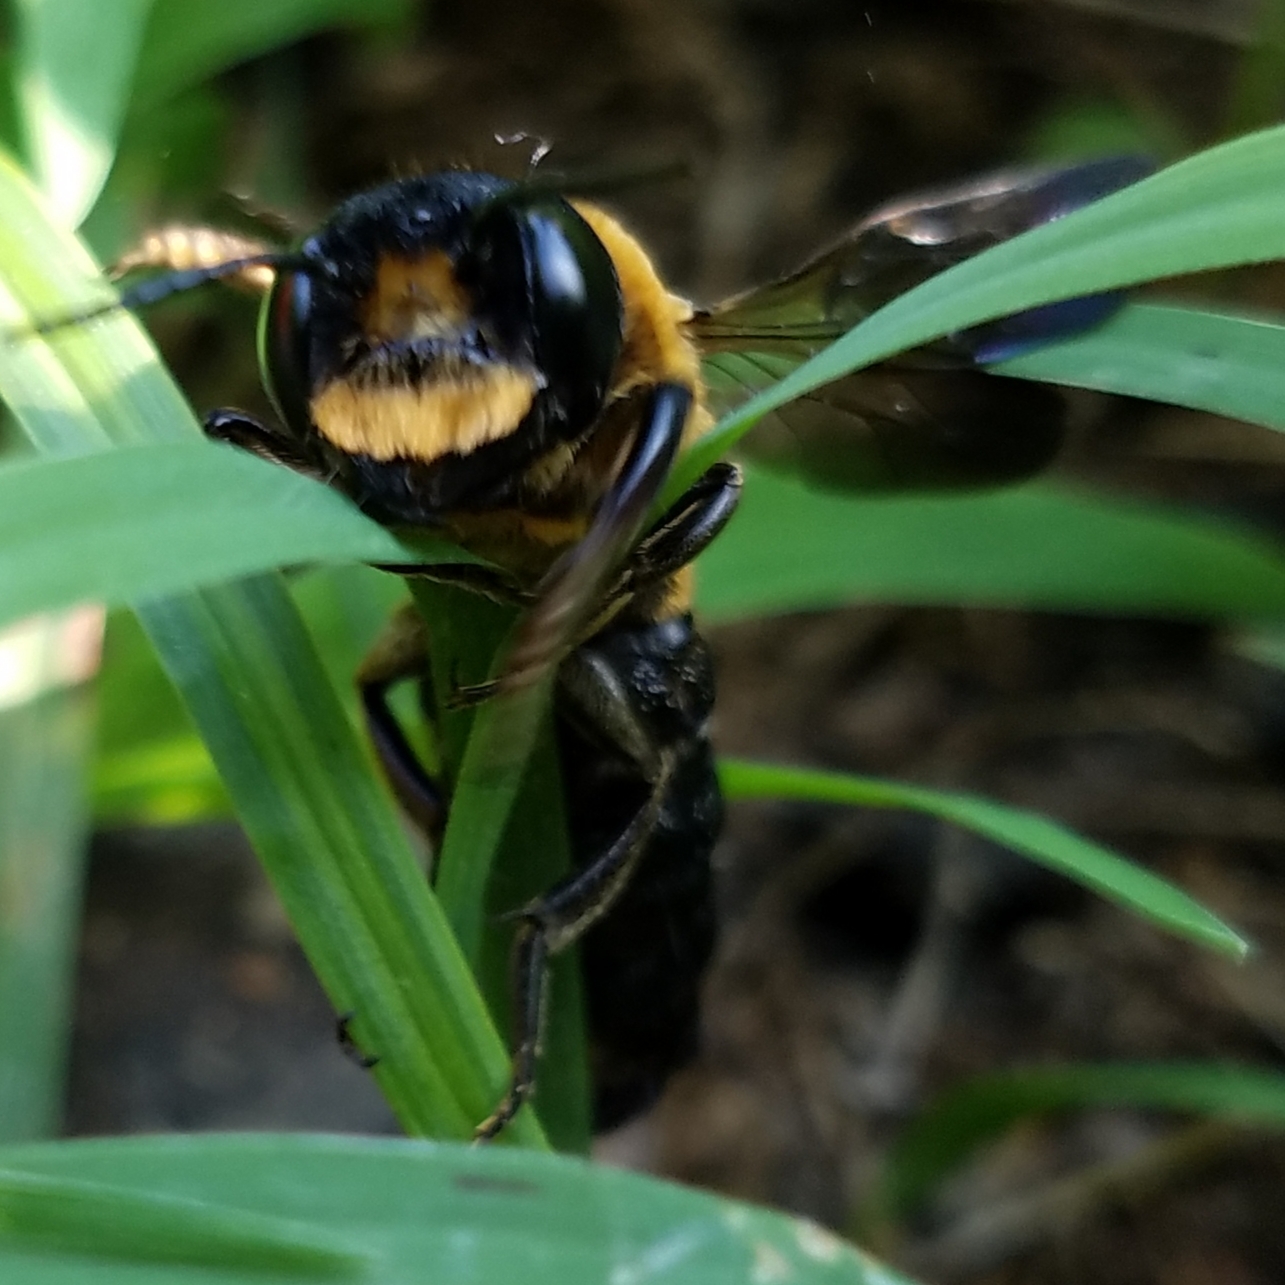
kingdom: Animalia
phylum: Arthropoda
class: Insecta
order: Hymenoptera
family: Megachilidae
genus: Megachile
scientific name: Megachile sculpturalis
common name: Sculptured resin bee
